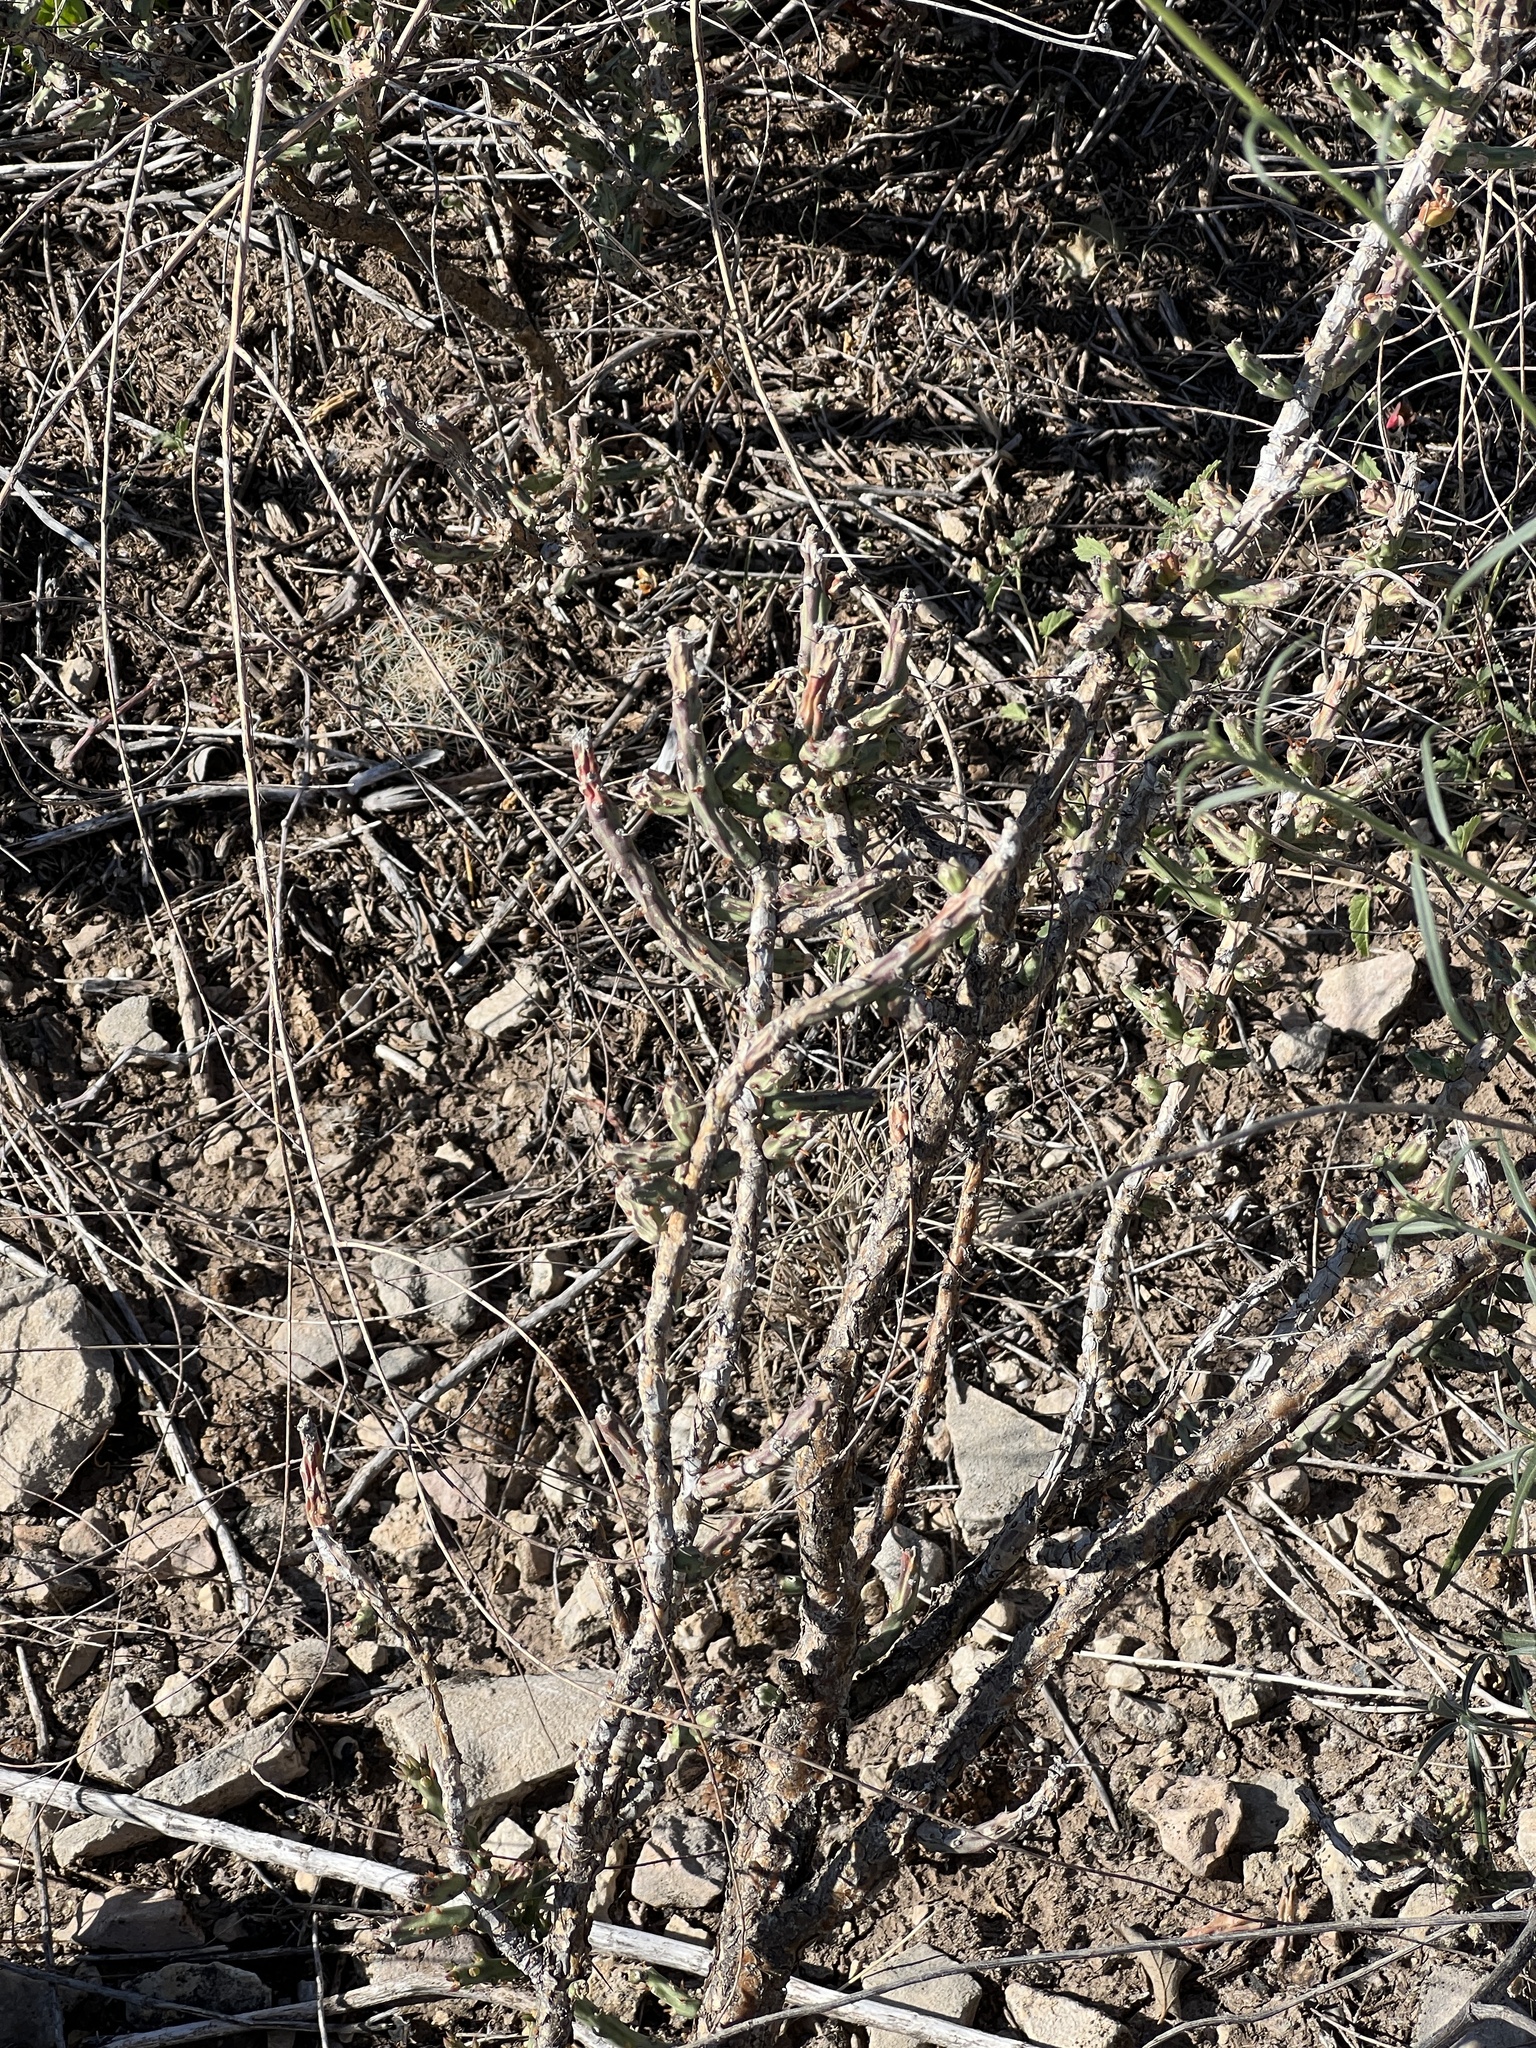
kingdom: Plantae
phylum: Tracheophyta
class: Magnoliopsida
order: Caryophyllales
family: Cactaceae
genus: Cylindropuntia
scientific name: Cylindropuntia leptocaulis
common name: Christmas cactus
